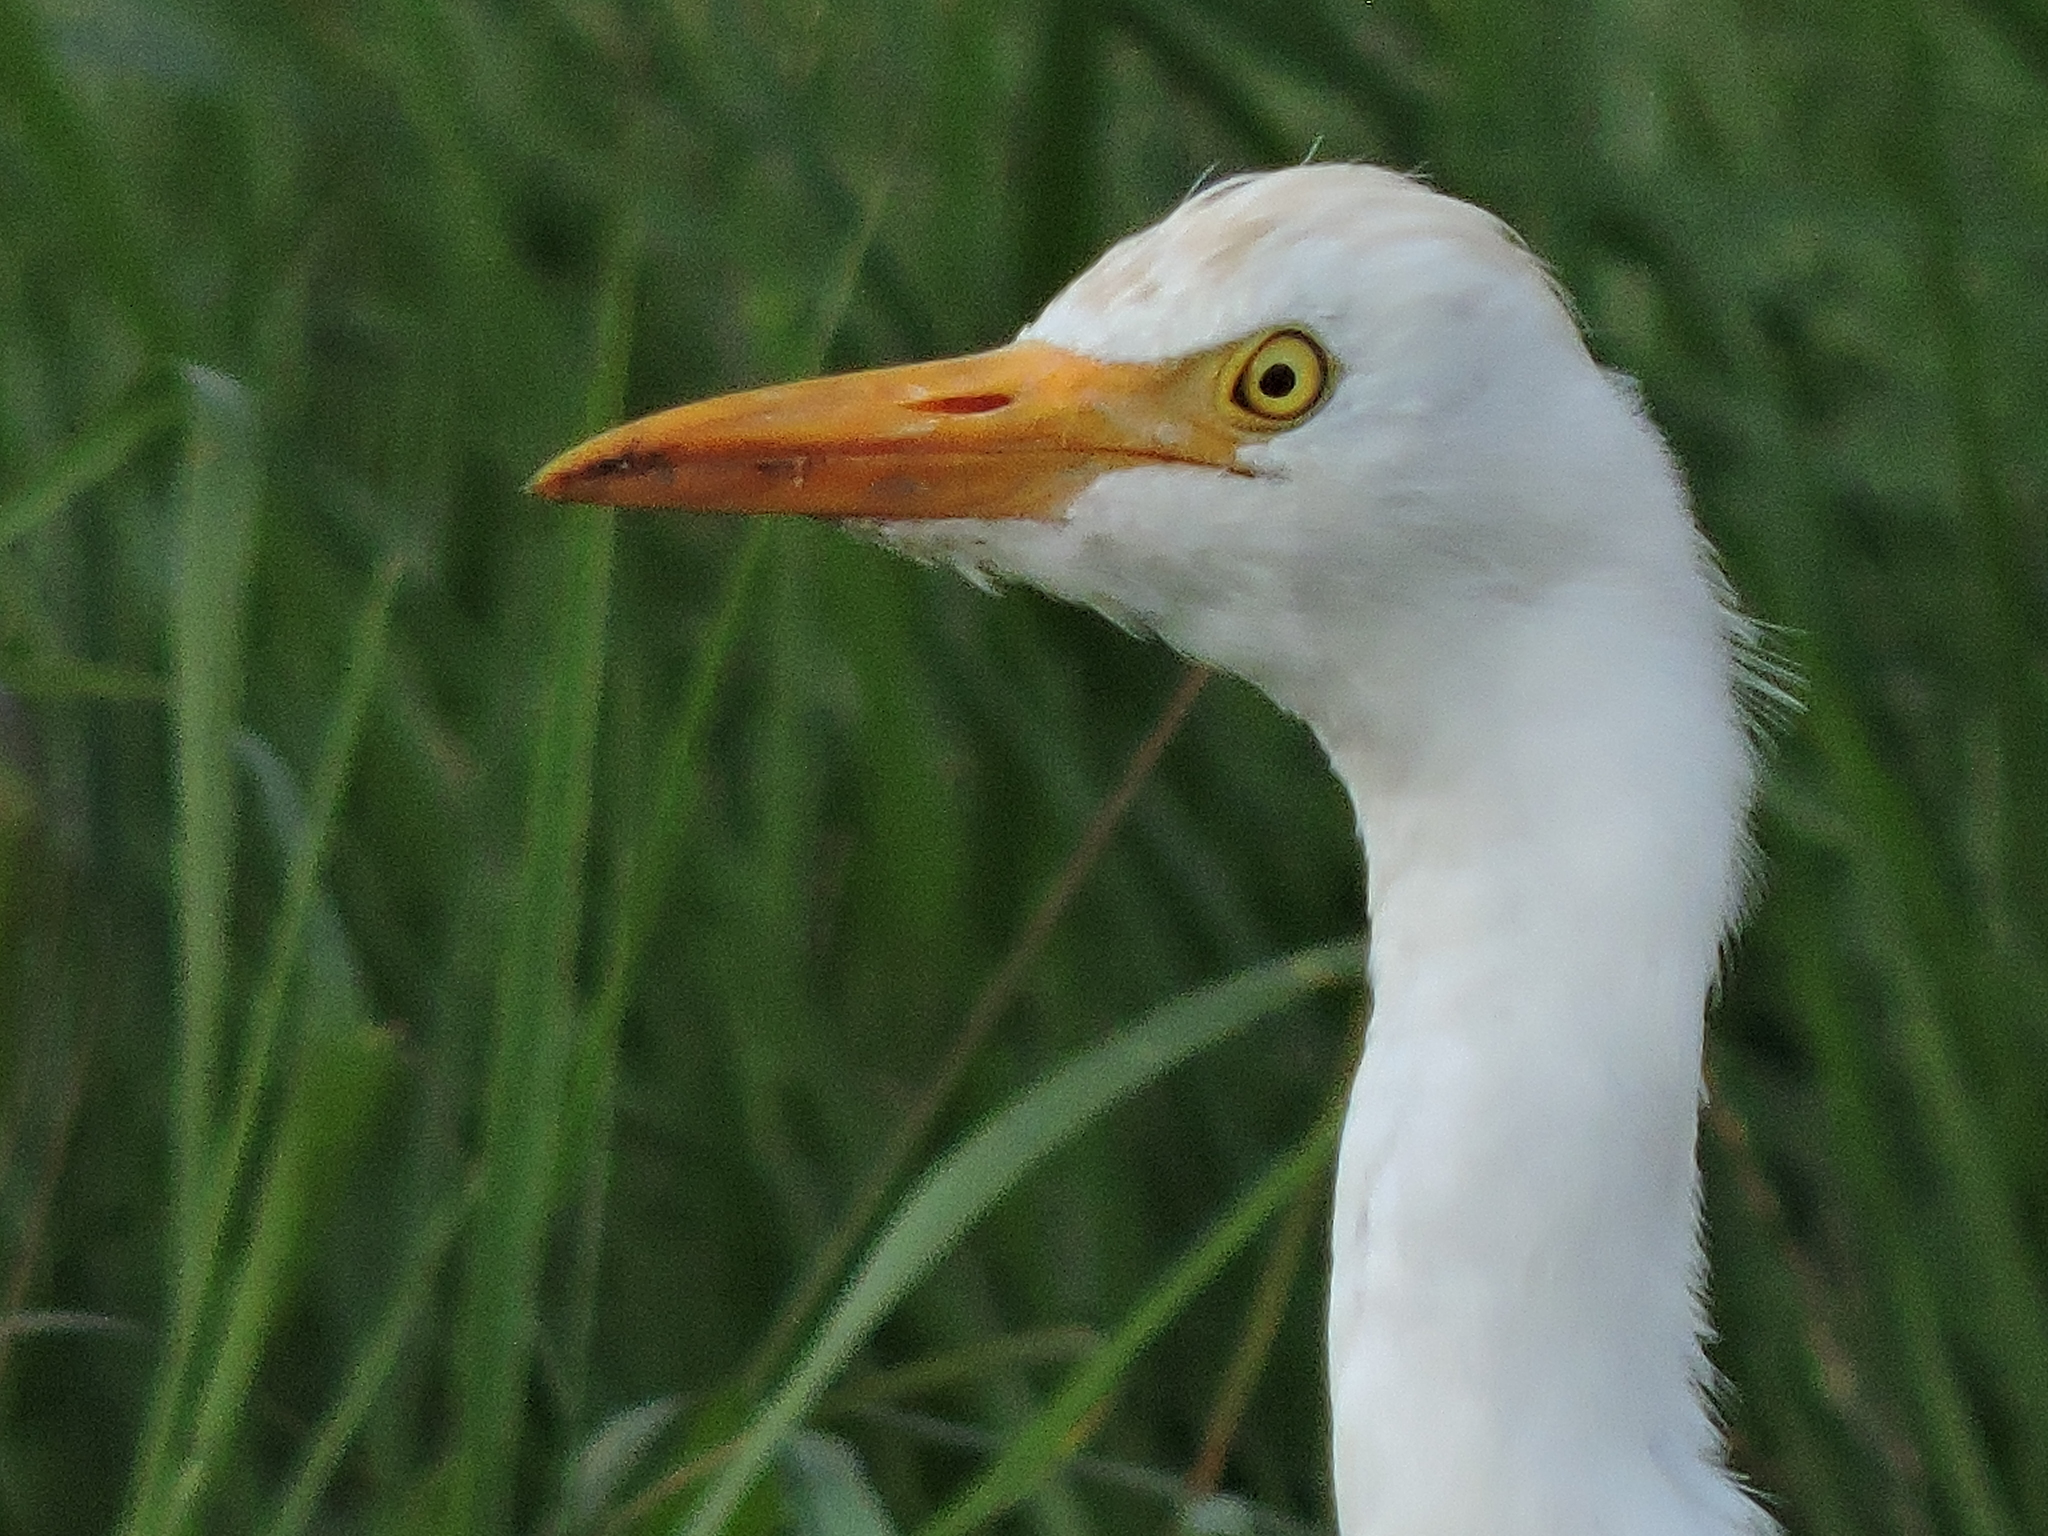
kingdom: Animalia
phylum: Chordata
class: Aves
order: Pelecaniformes
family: Ardeidae
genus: Bubulcus
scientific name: Bubulcus ibis
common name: Cattle egret
